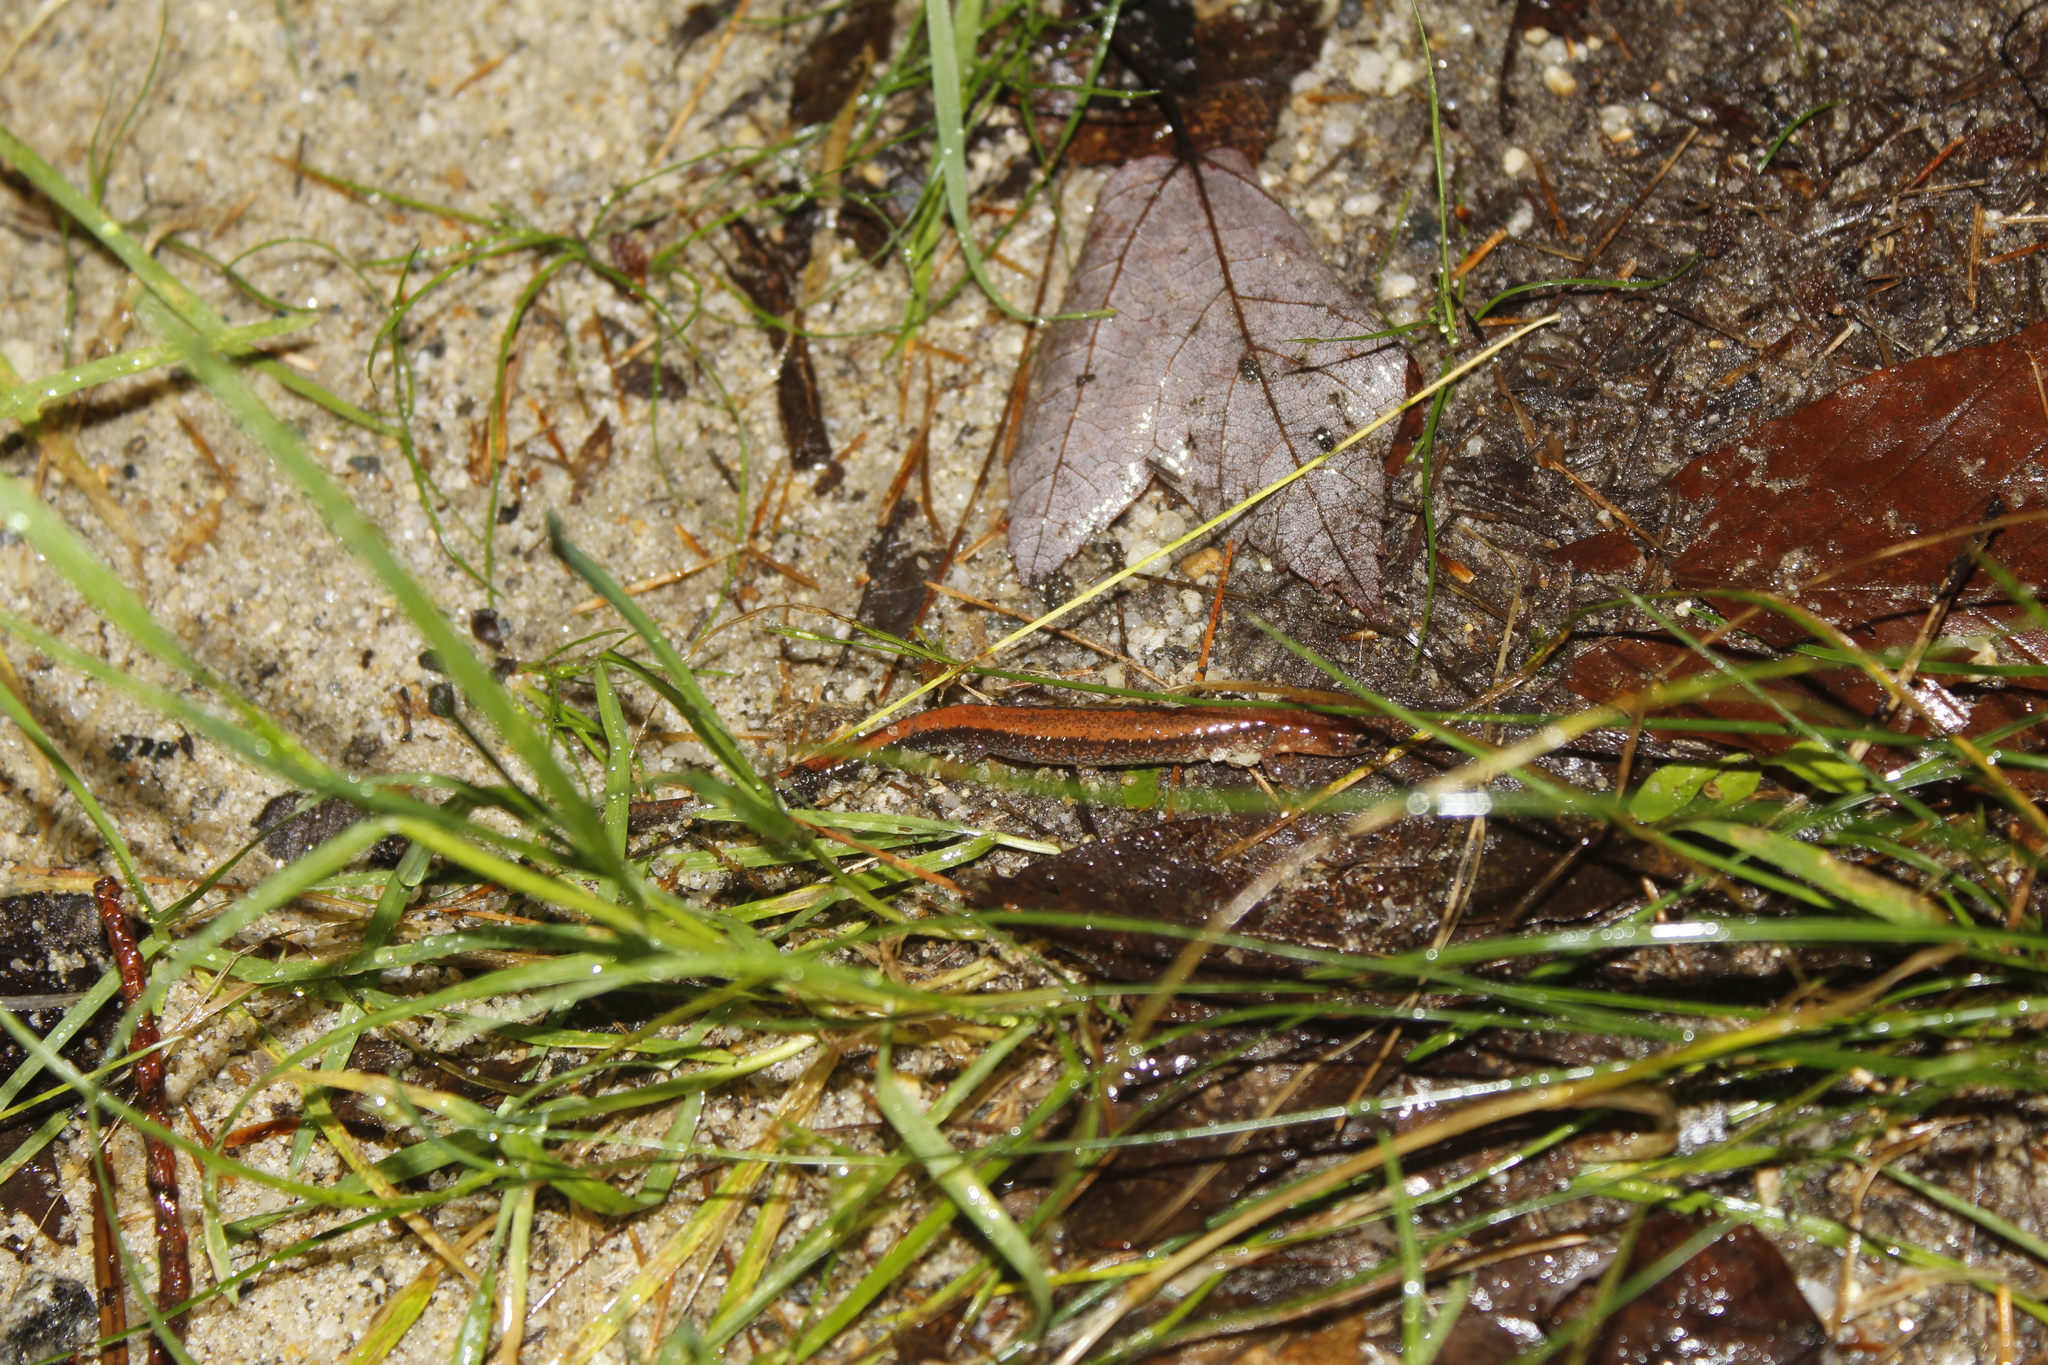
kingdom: Animalia
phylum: Chordata
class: Amphibia
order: Caudata
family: Plethodontidae
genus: Plethodon
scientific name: Plethodon cinereus
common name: Redback salamander
